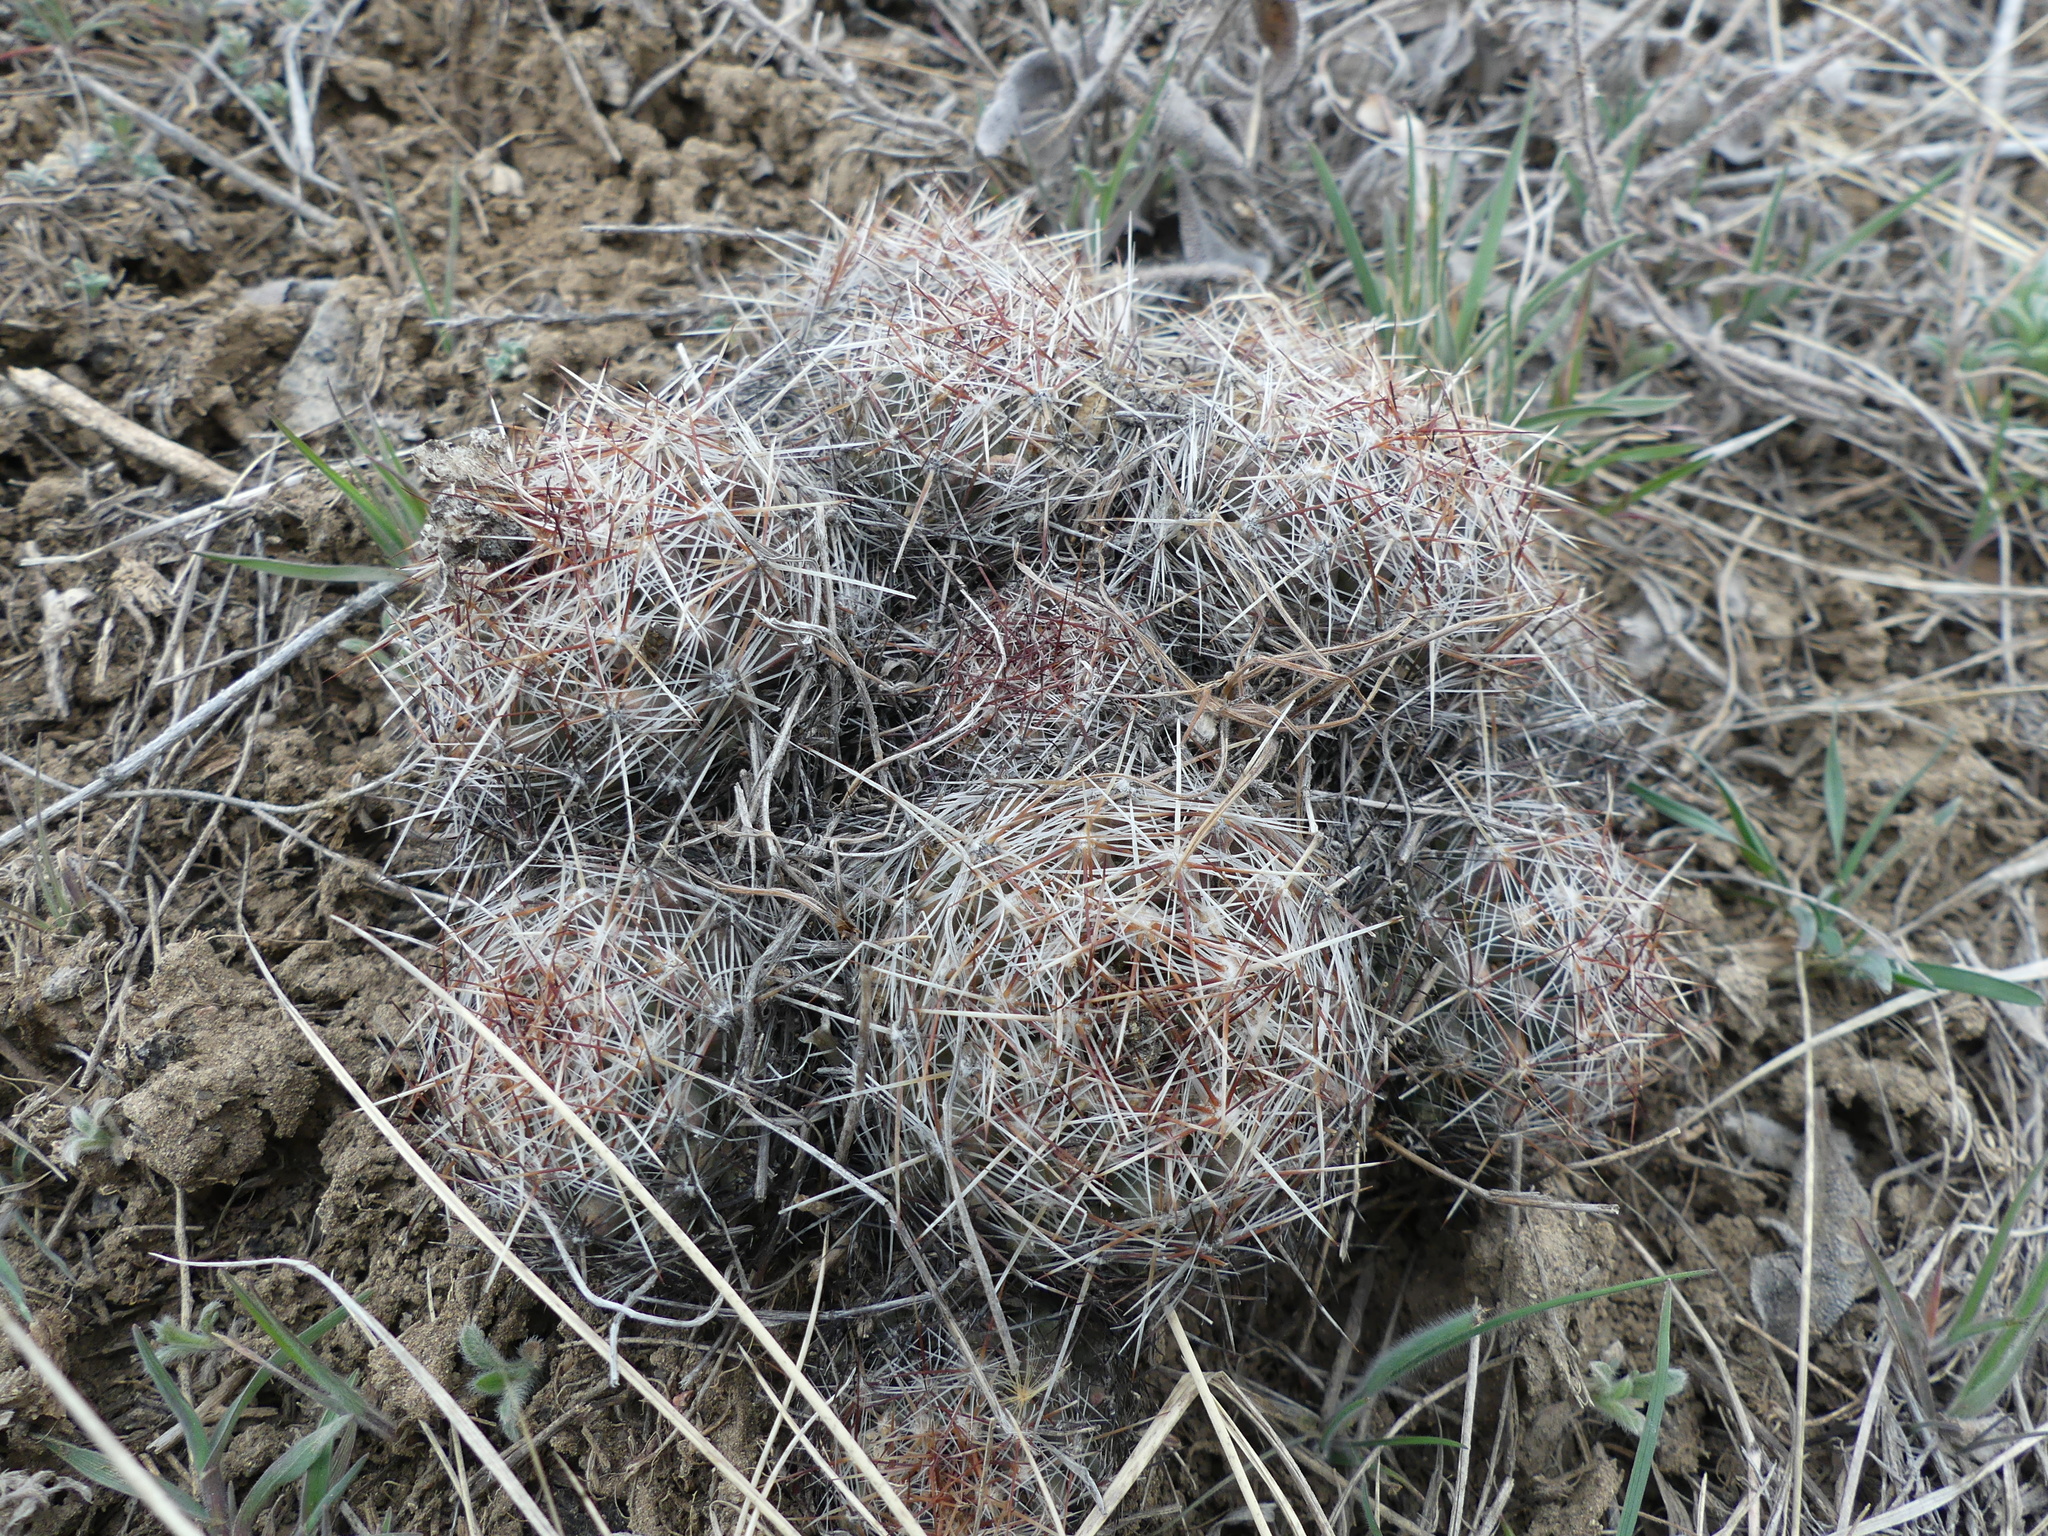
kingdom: Plantae
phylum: Tracheophyta
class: Magnoliopsida
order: Caryophyllales
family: Cactaceae
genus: Pelecyphora
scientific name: Pelecyphora vivipara
